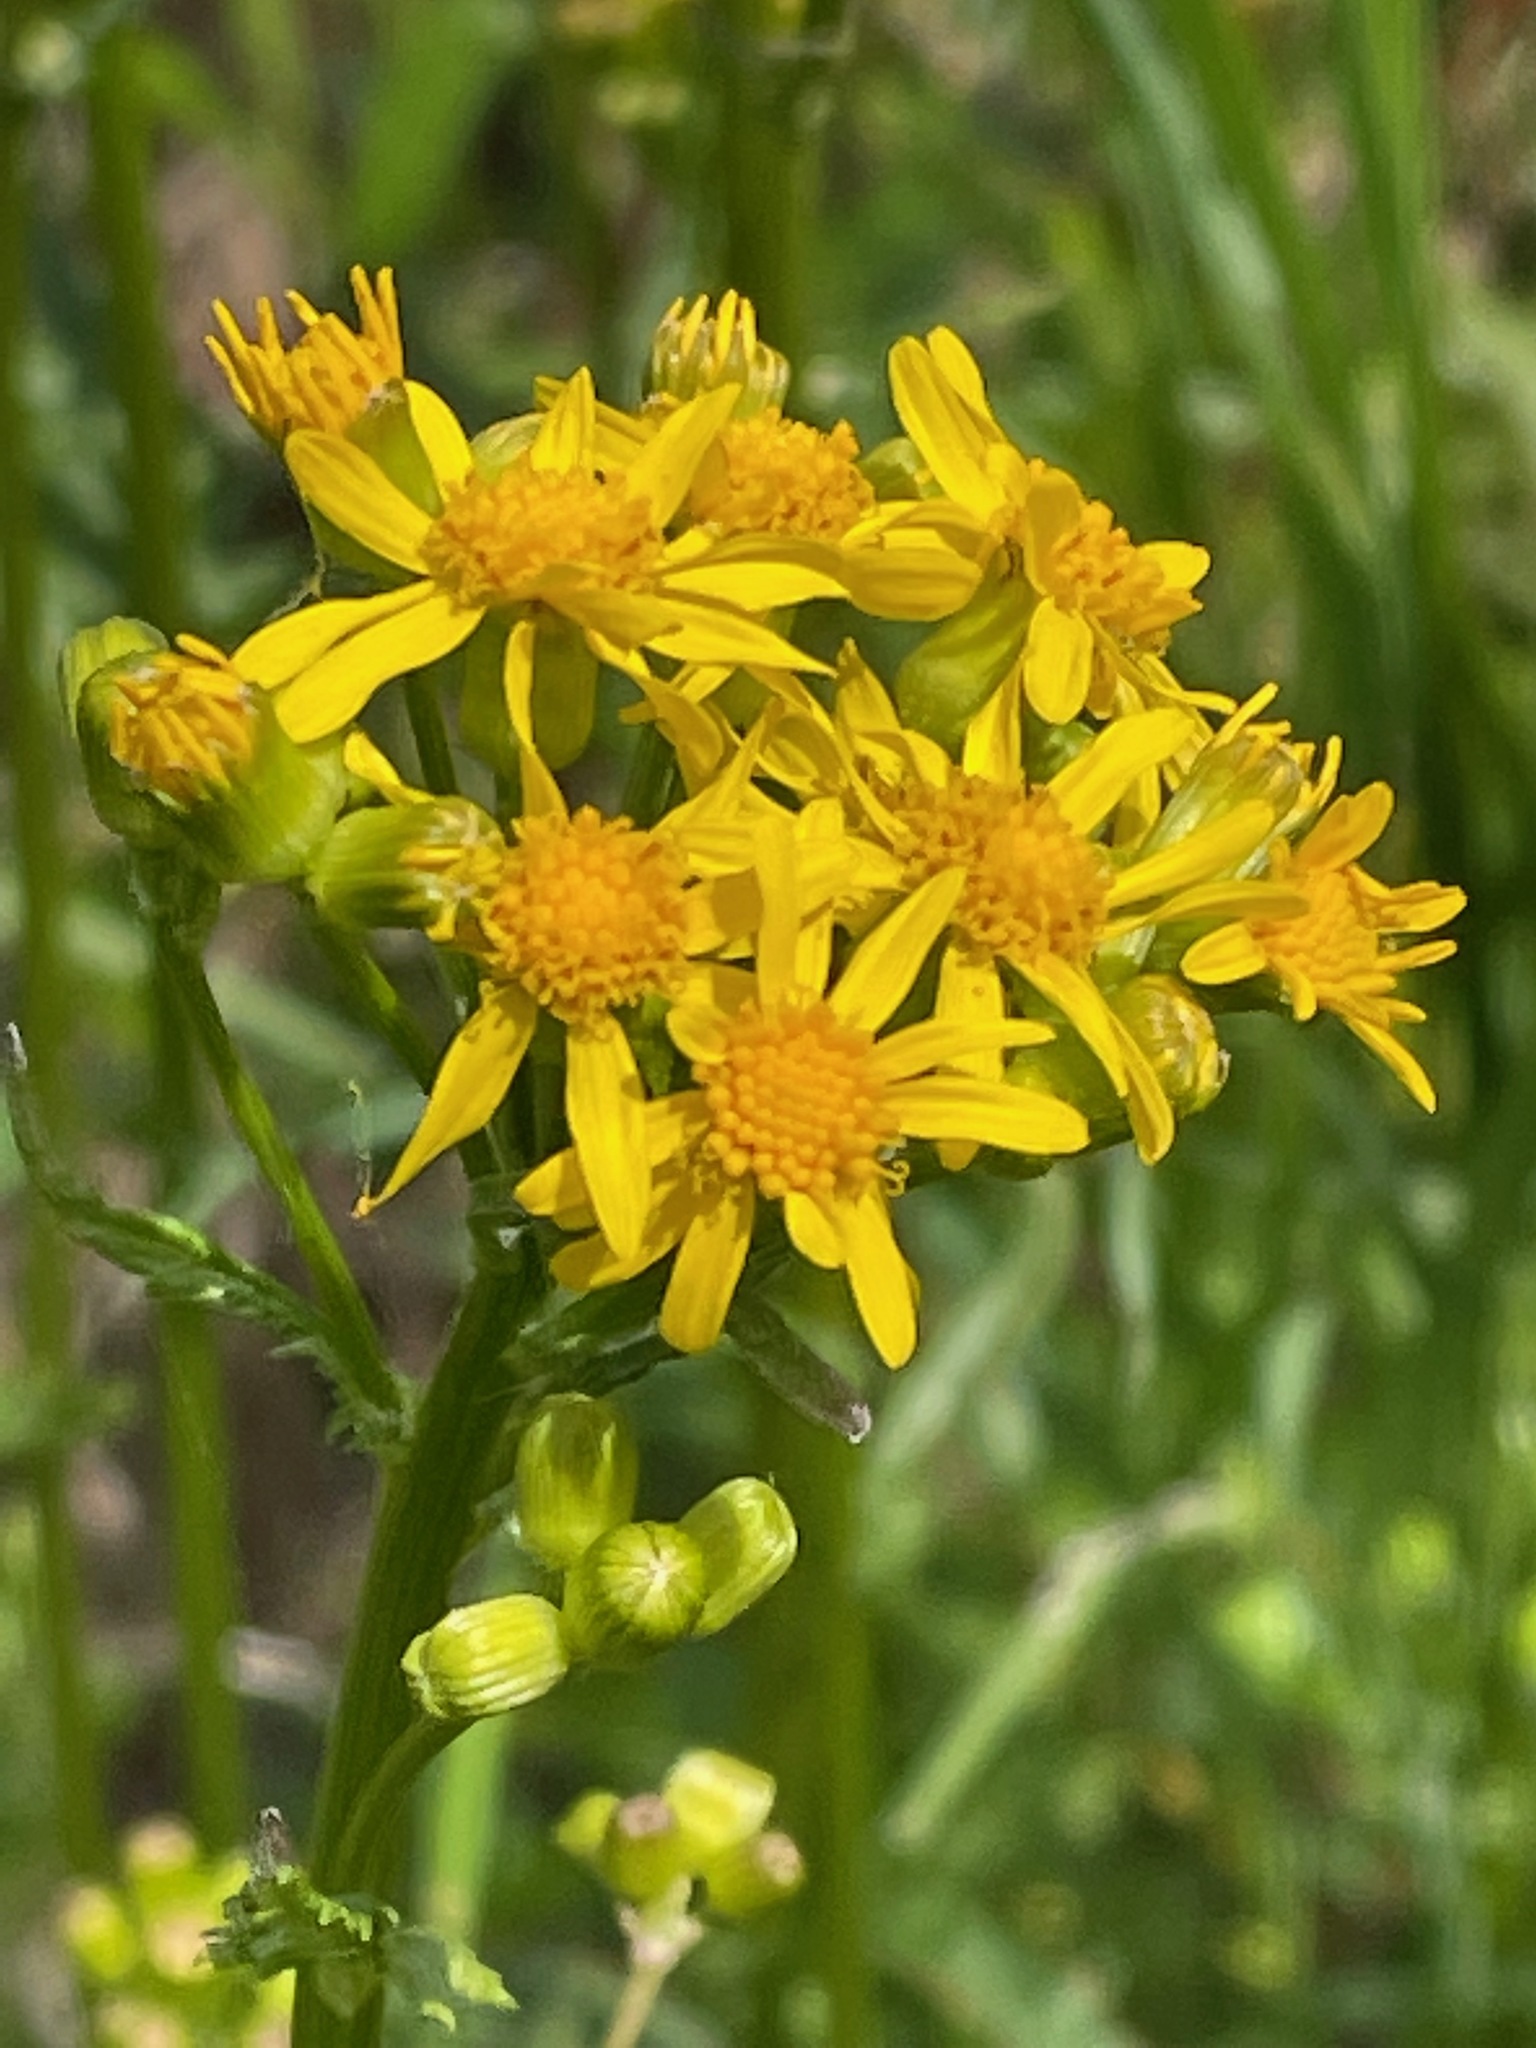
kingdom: Plantae
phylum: Tracheophyta
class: Magnoliopsida
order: Asterales
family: Asteraceae
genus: Packera
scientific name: Packera schweinitziana
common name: Schweinitz's ragwort
